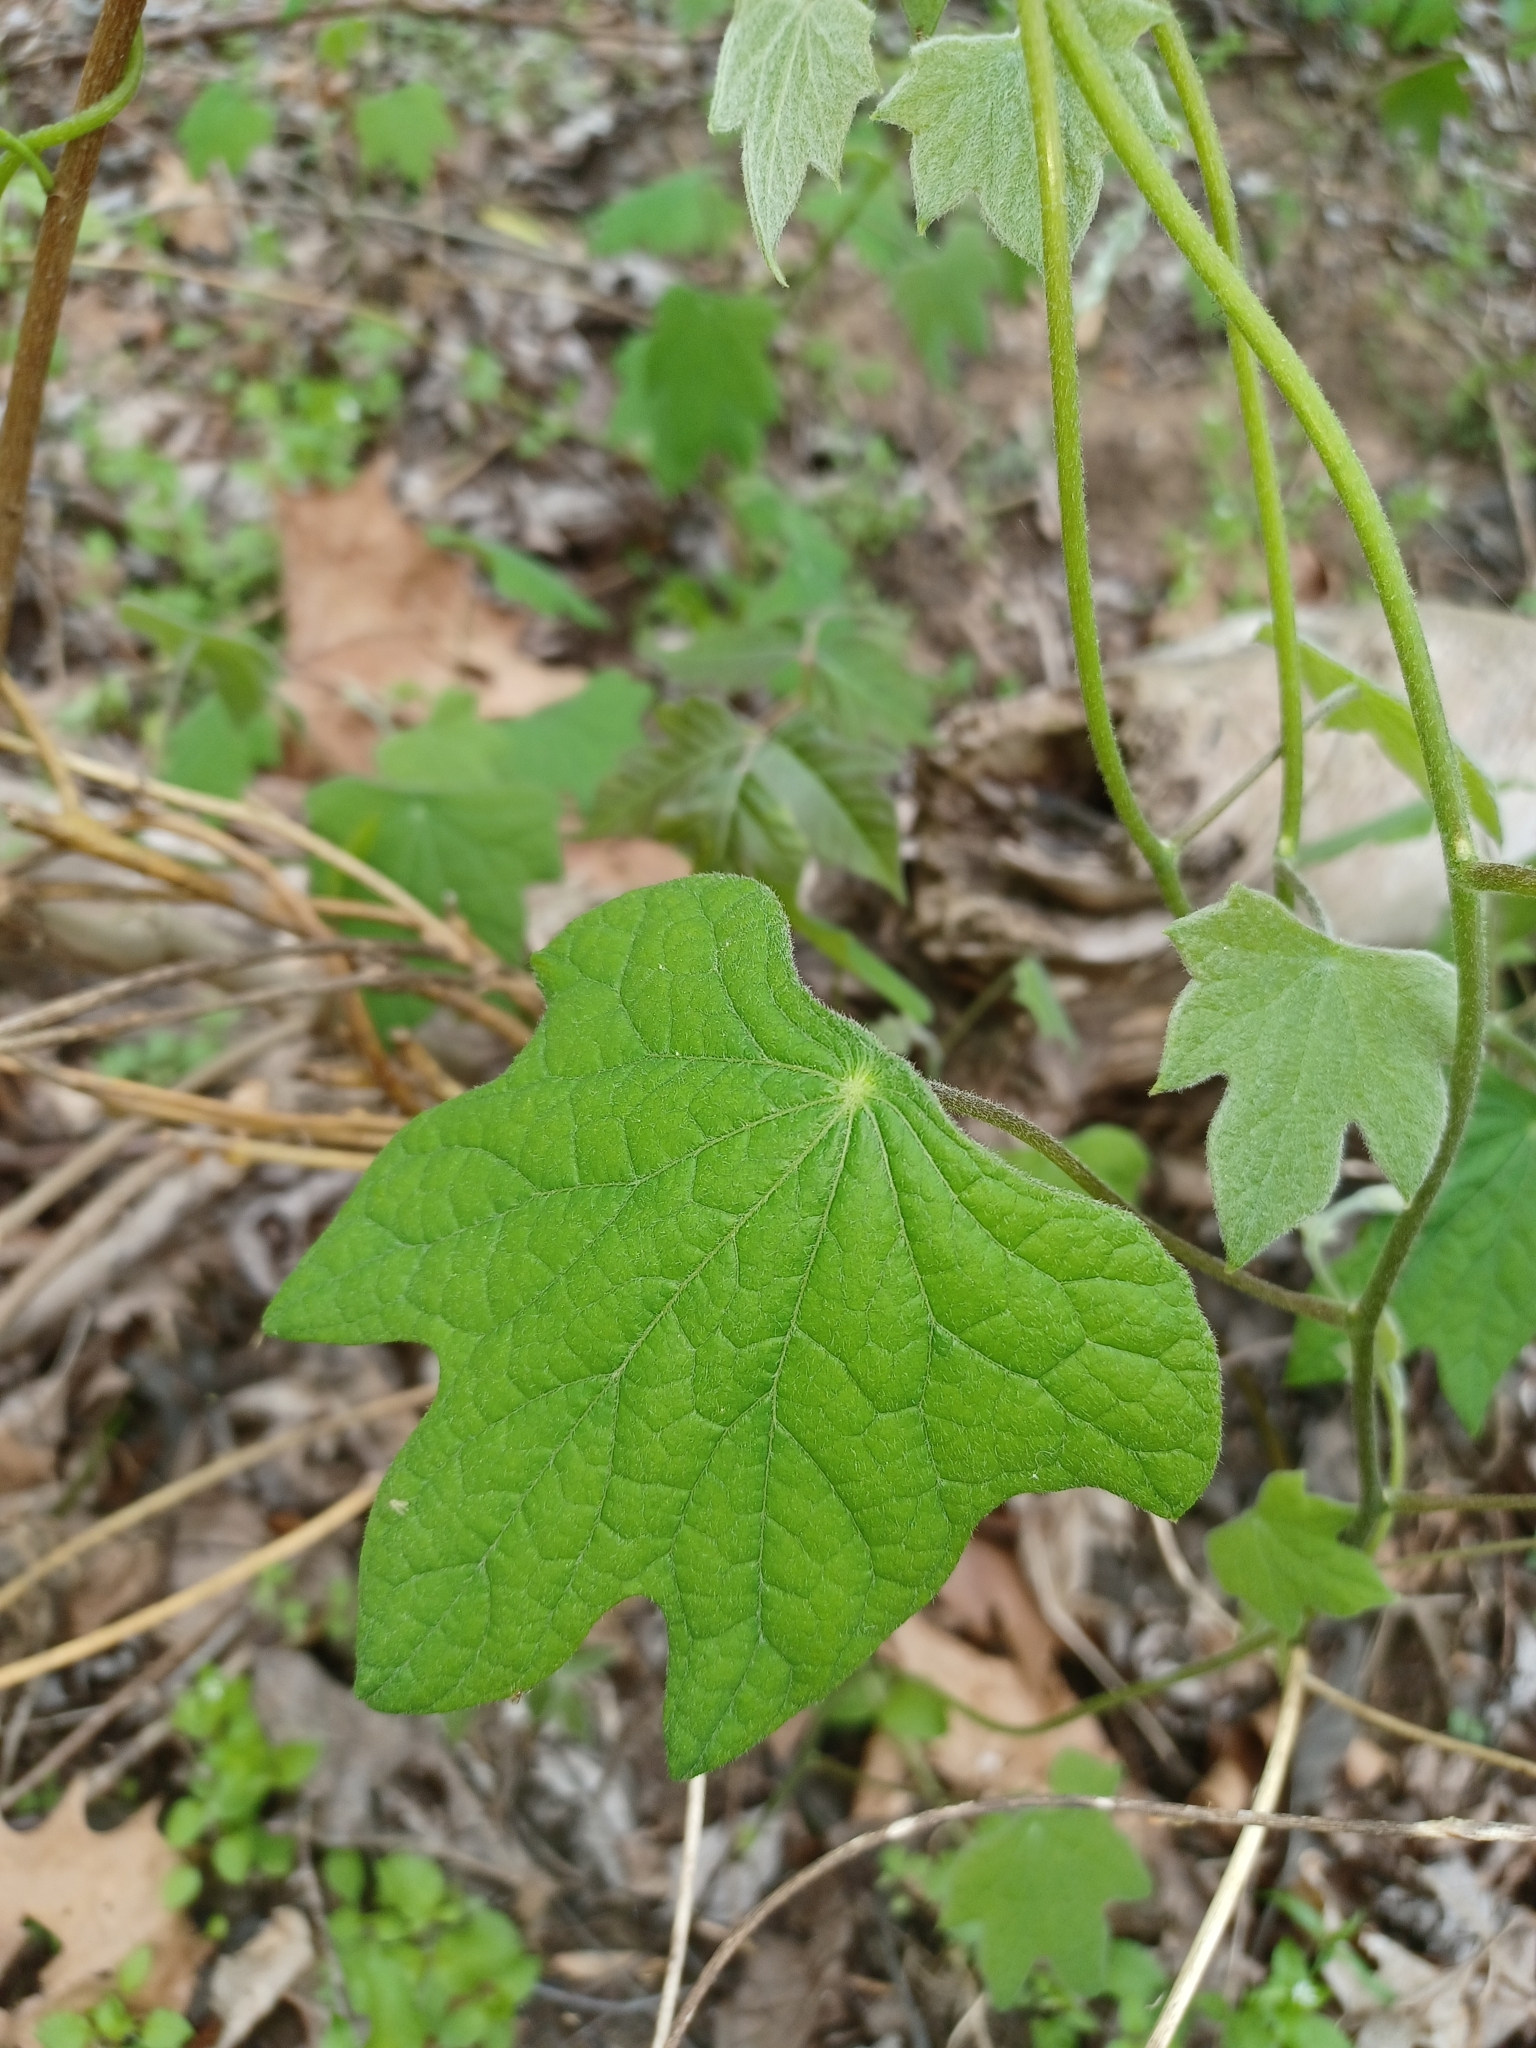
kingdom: Plantae
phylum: Tracheophyta
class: Magnoliopsida
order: Ranunculales
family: Menispermaceae
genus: Menispermum
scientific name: Menispermum canadense
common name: Moonseed
